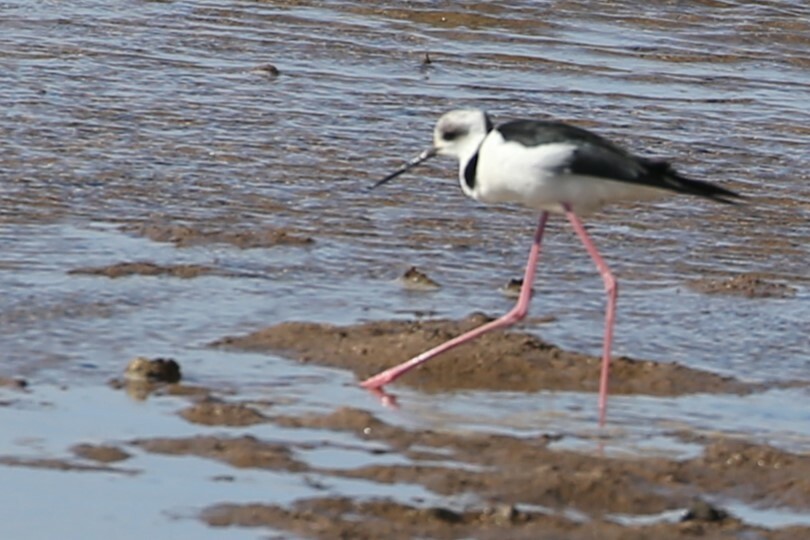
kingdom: Animalia
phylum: Chordata
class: Aves
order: Charadriiformes
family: Recurvirostridae
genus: Himantopus
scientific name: Himantopus leucocephalus
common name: White-headed stilt
